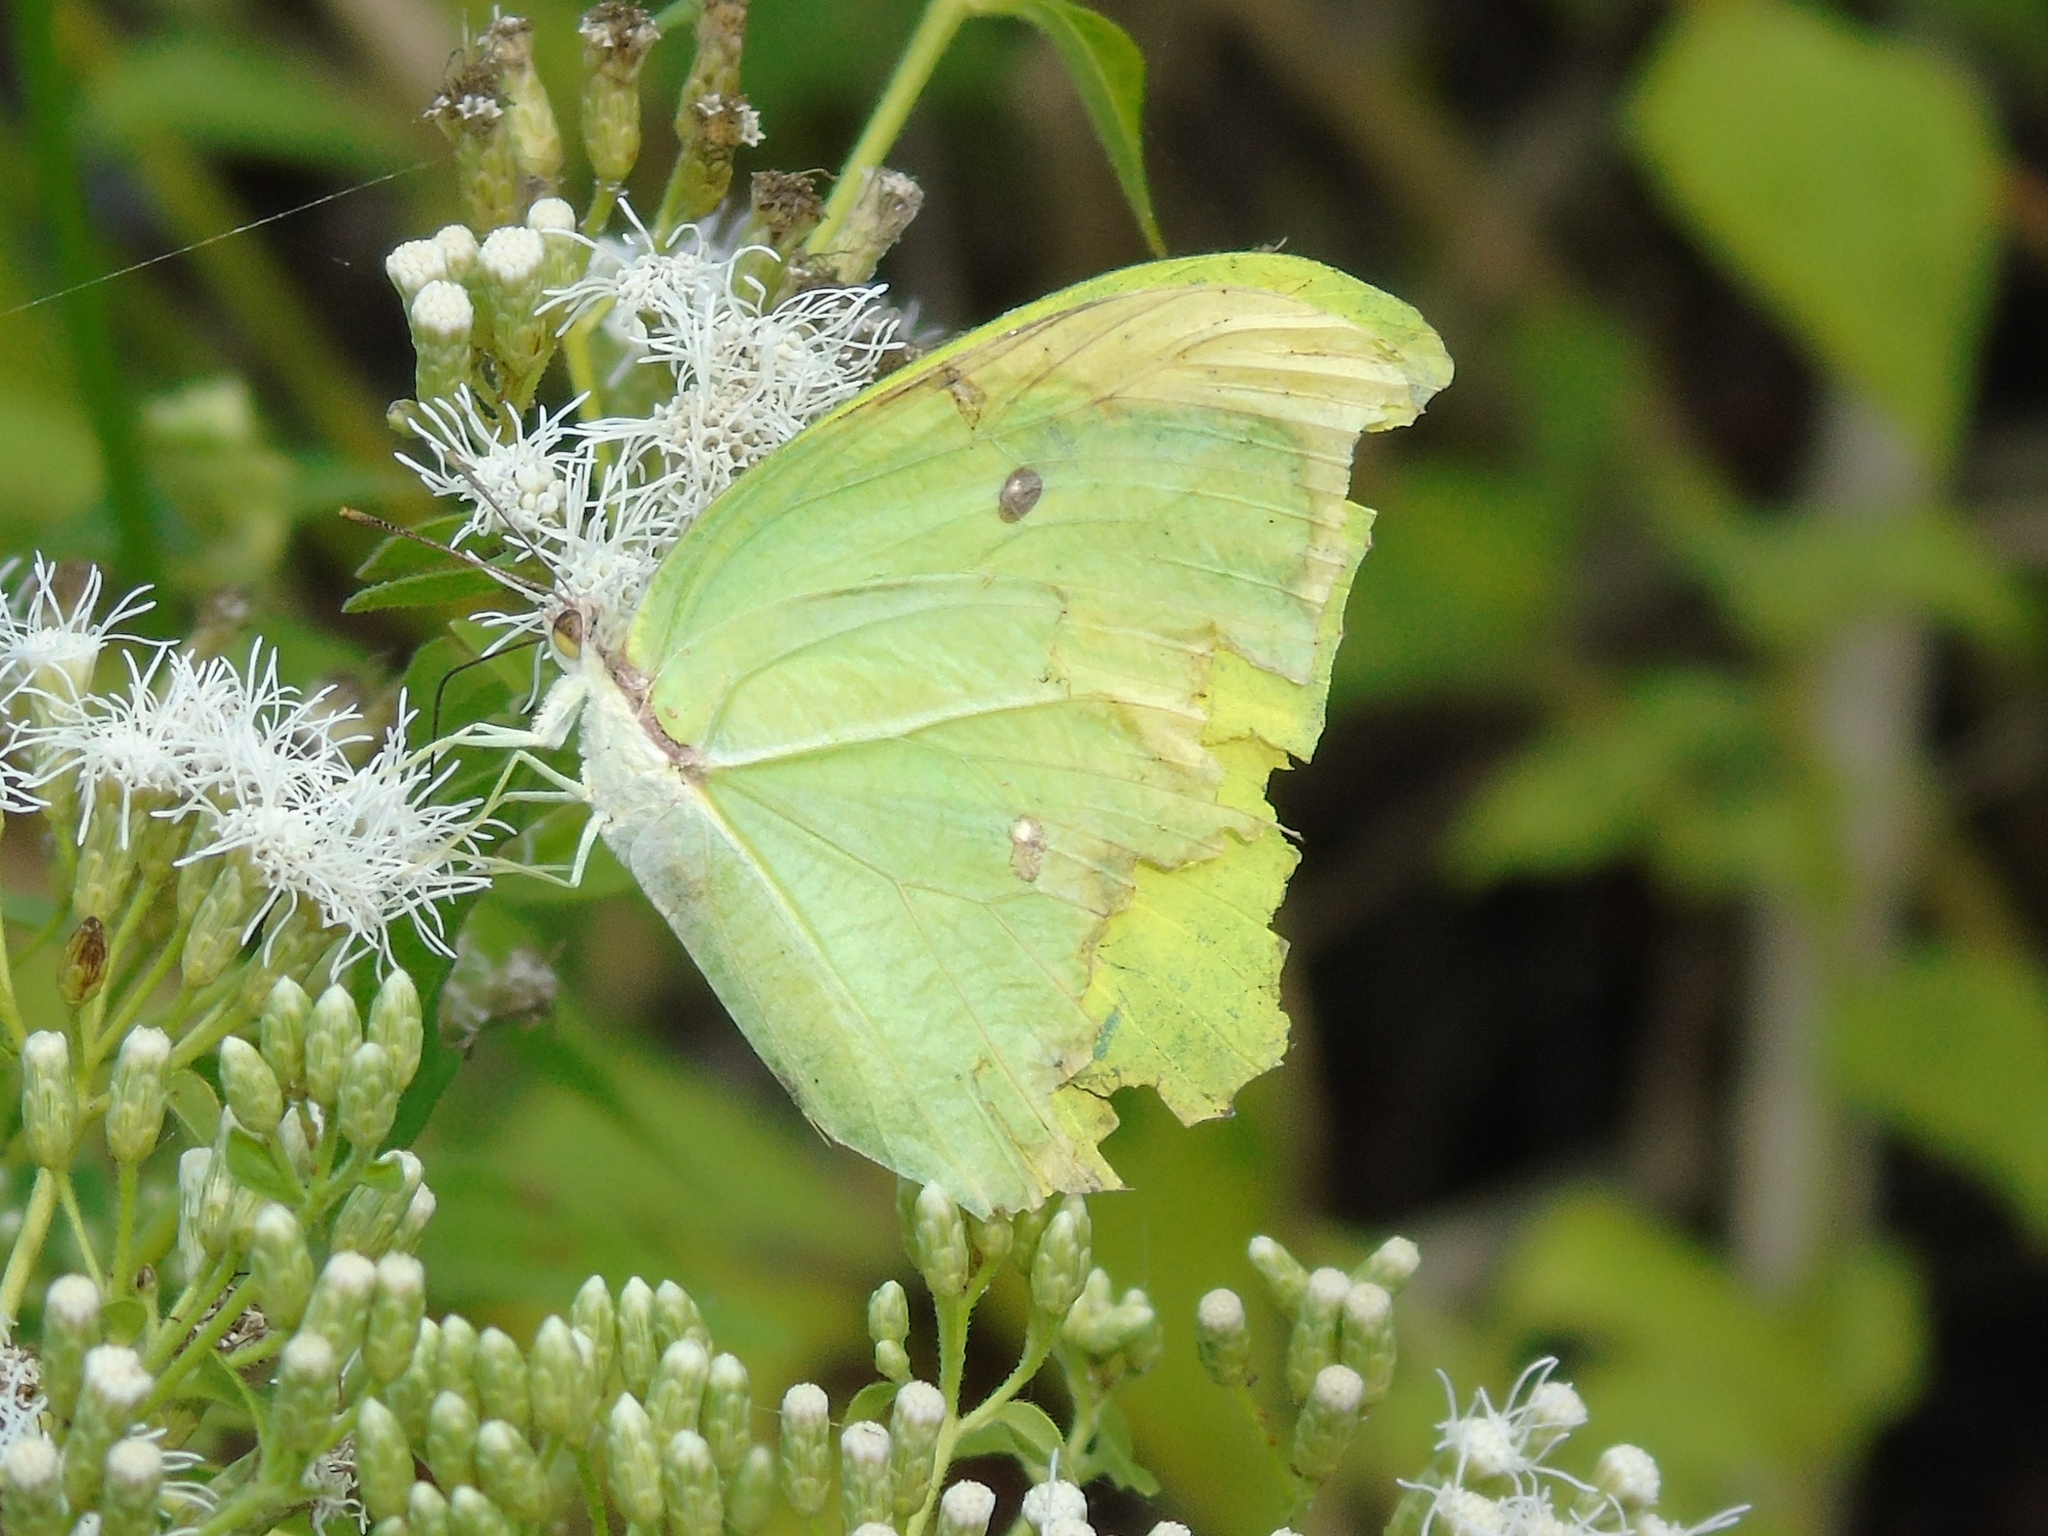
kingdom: Animalia
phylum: Arthropoda
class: Insecta
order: Lepidoptera
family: Pieridae
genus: Anteos
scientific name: Anteos maerula
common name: Angled sulphur
